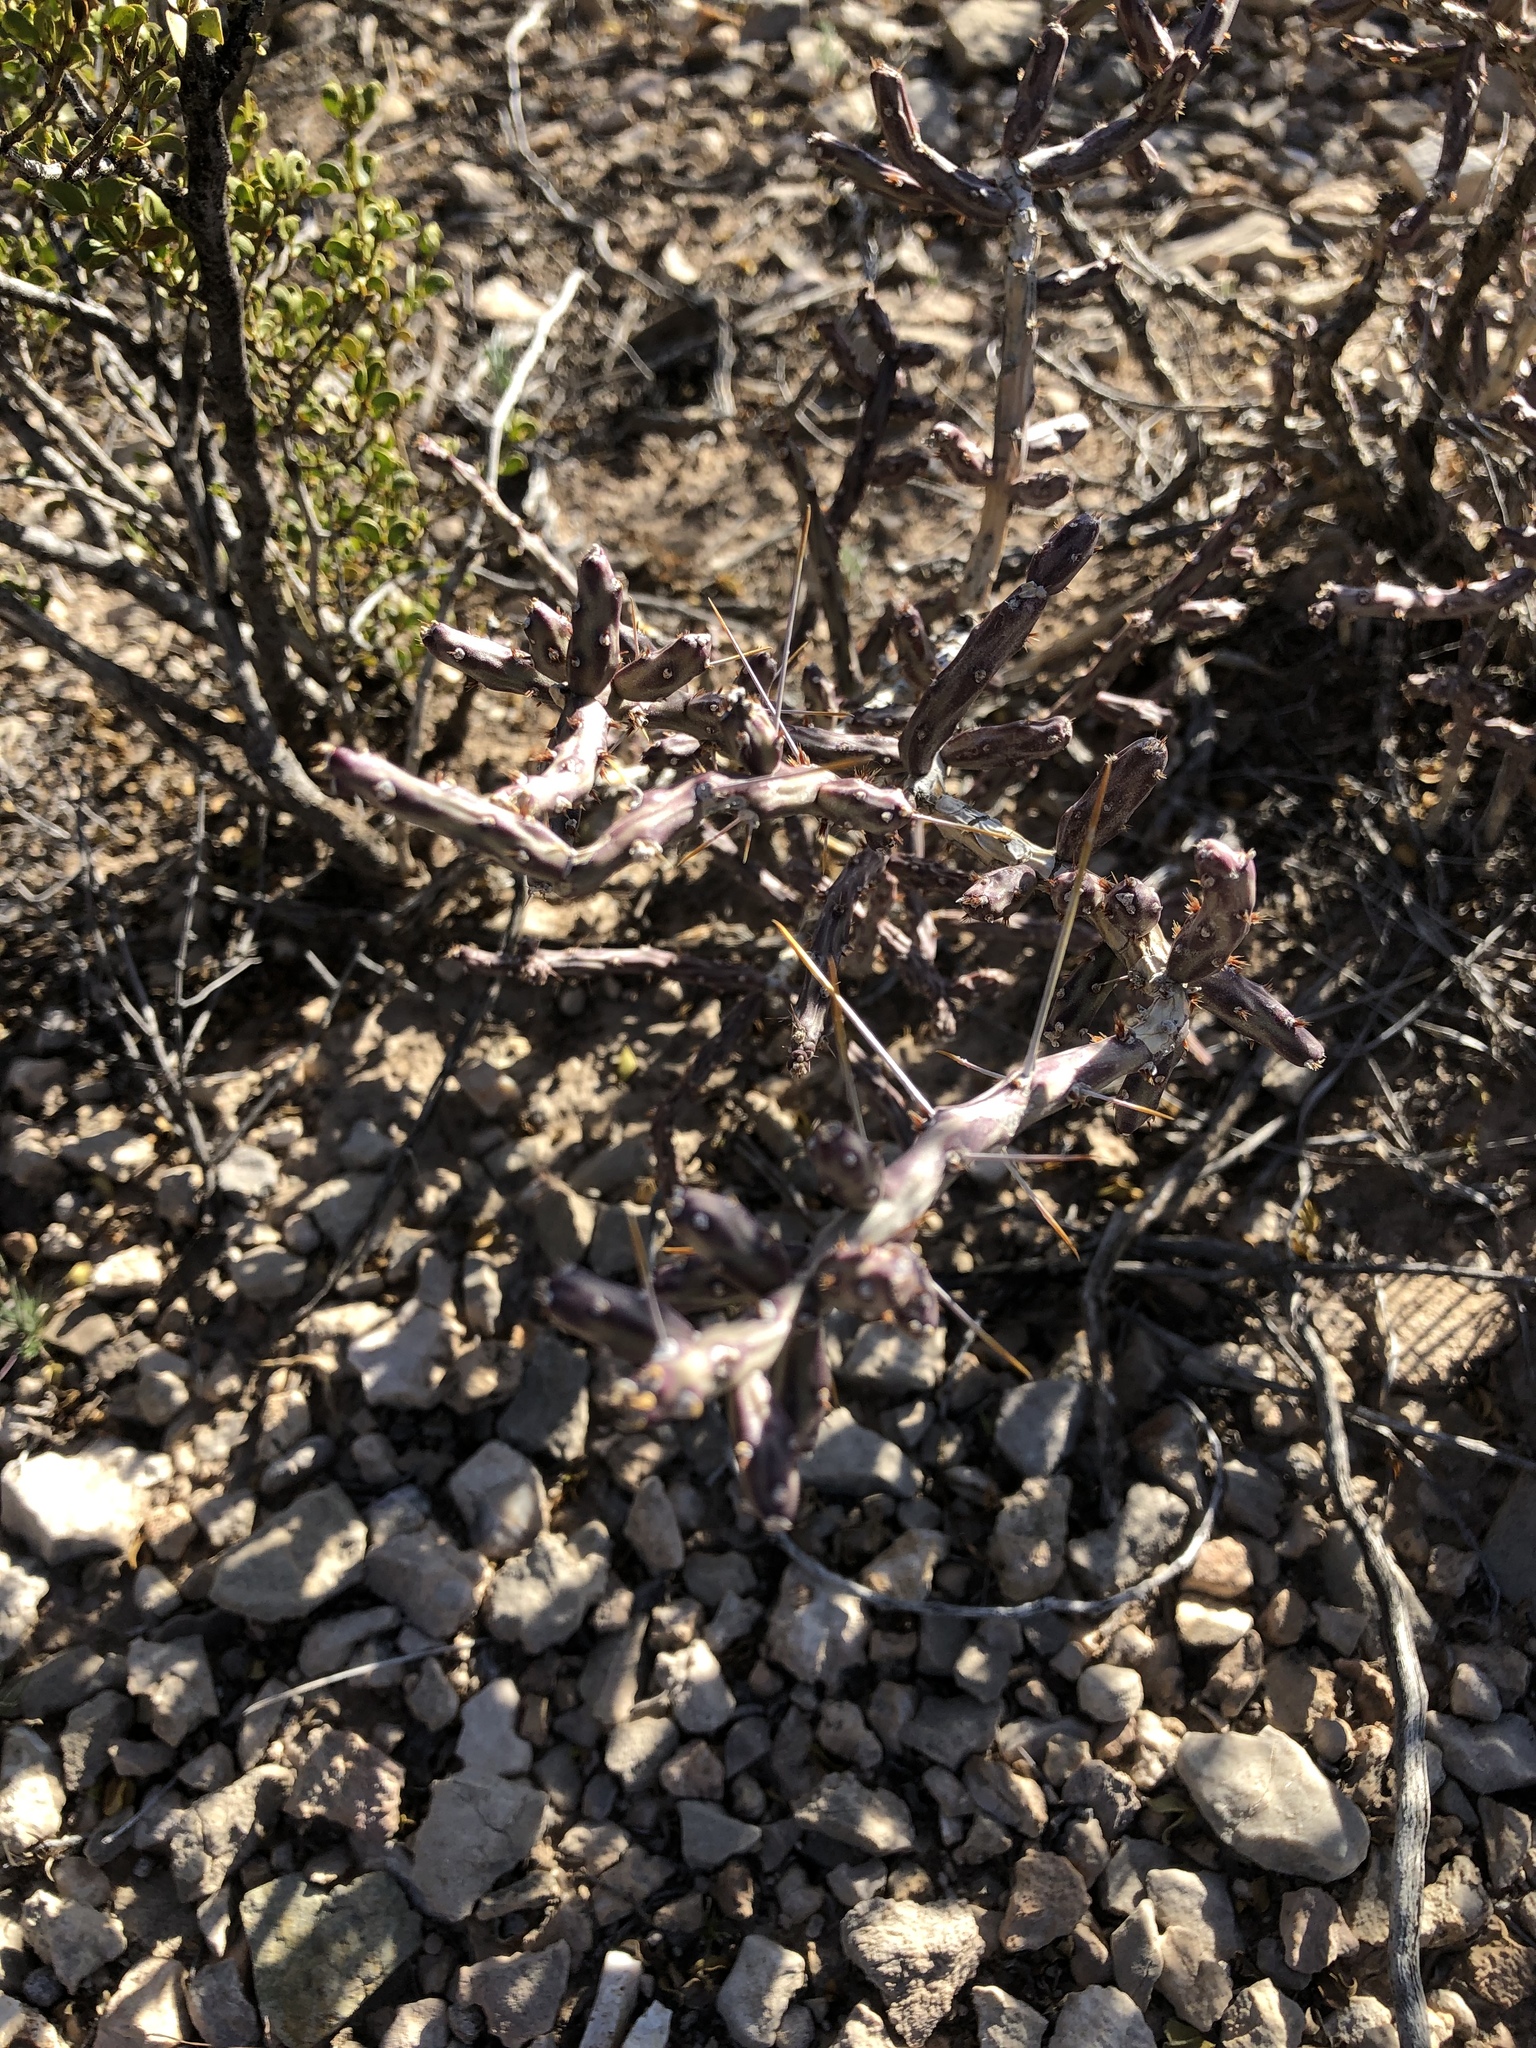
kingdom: Plantae
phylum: Tracheophyta
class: Magnoliopsida
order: Caryophyllales
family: Cactaceae
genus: Cylindropuntia
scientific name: Cylindropuntia leptocaulis
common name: Christmas cactus
